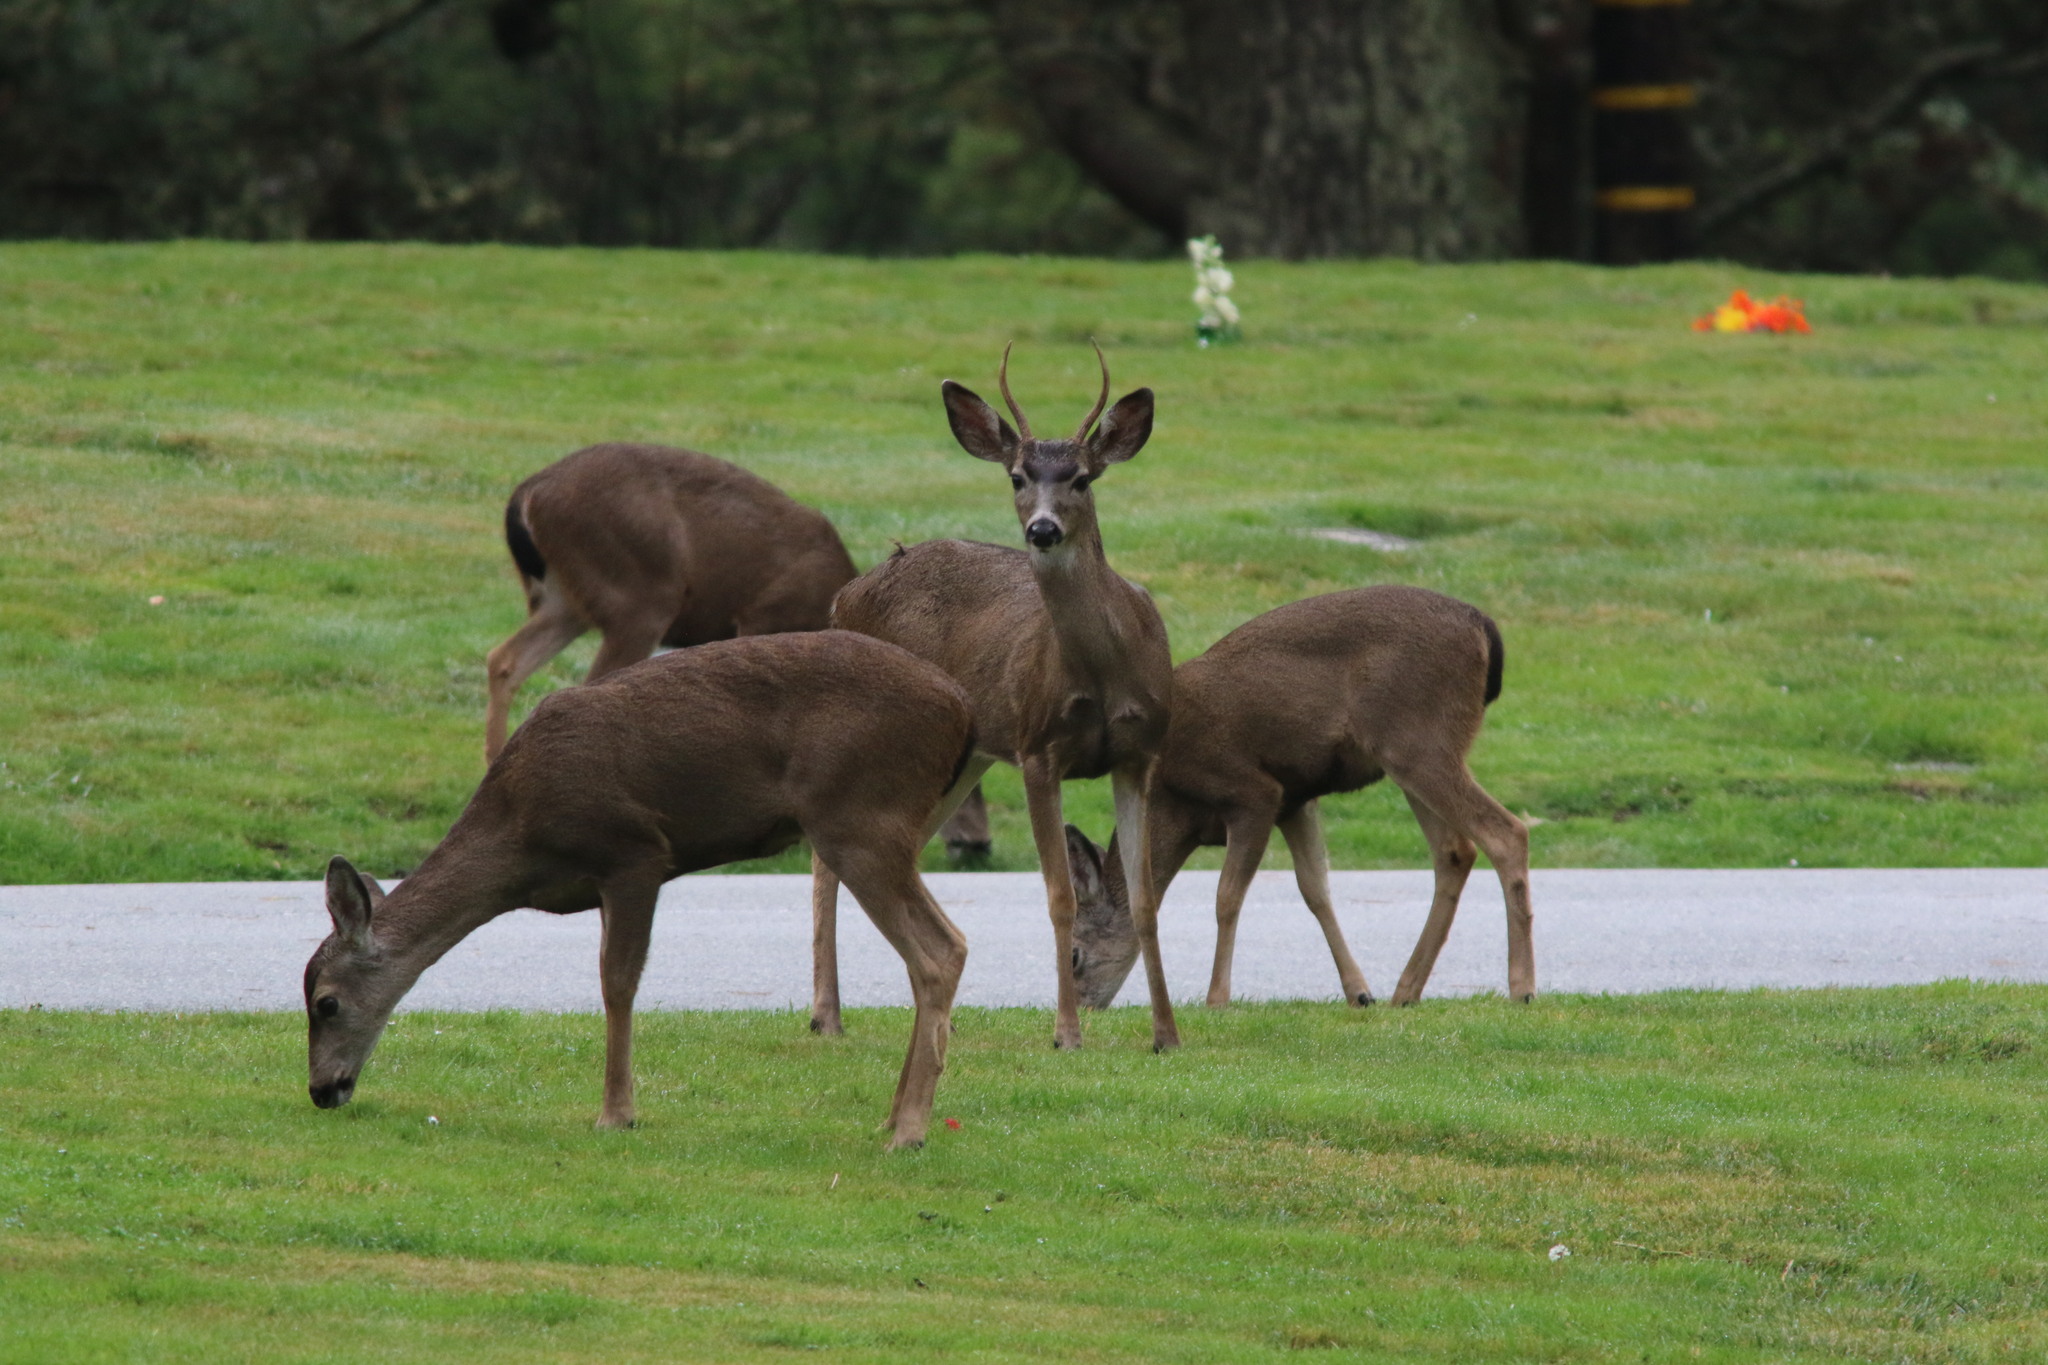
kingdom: Animalia
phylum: Chordata
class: Mammalia
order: Artiodactyla
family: Cervidae
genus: Odocoileus
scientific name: Odocoileus hemionus
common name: Mule deer
